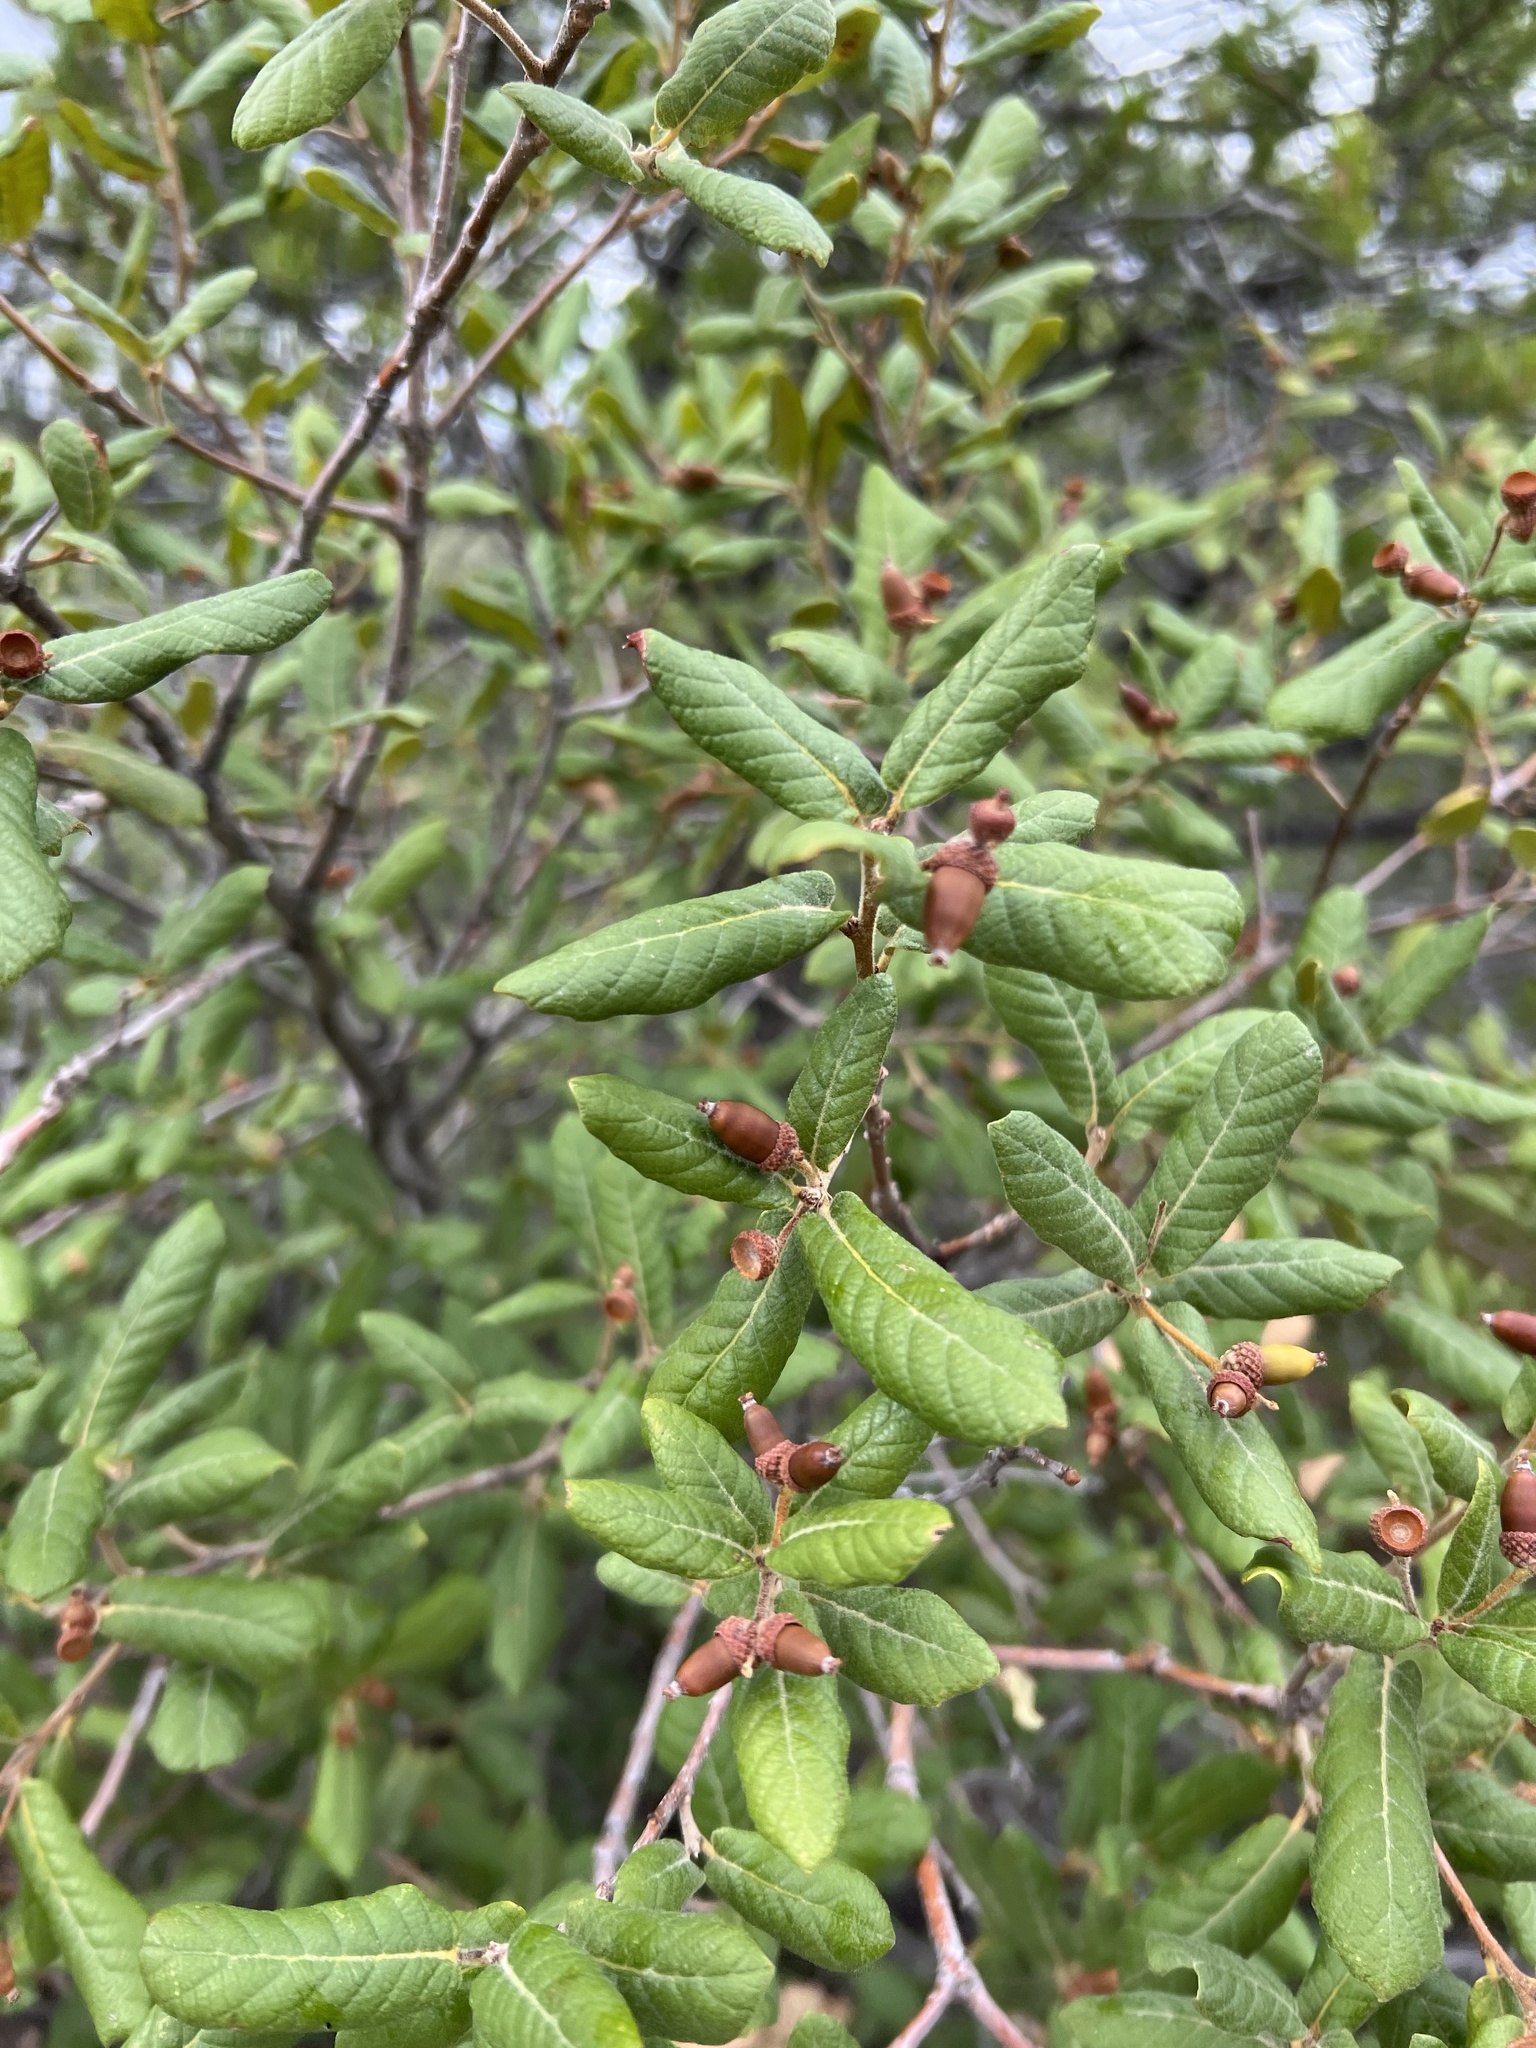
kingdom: Plantae
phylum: Tracheophyta
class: Magnoliopsida
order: Fagales
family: Fagaceae
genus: Quercus
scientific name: Quercus rugosa
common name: Netleaf oak
